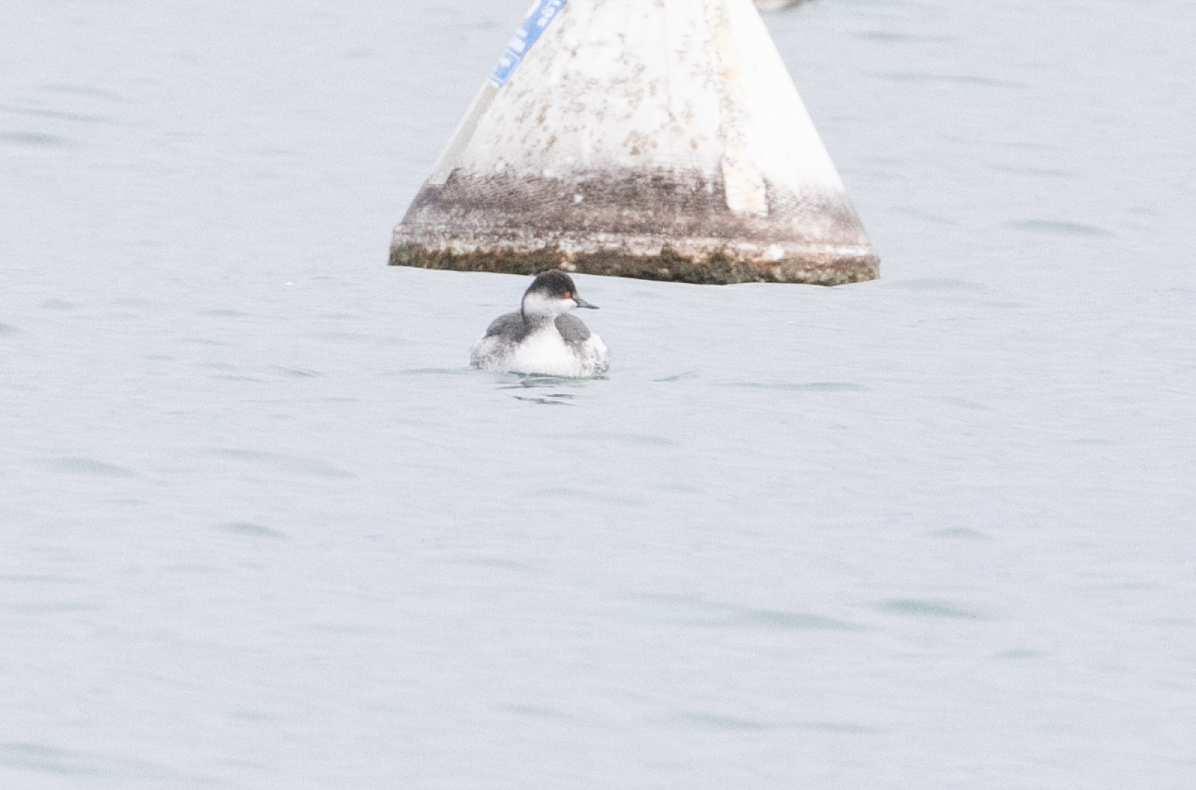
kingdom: Animalia
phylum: Chordata
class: Aves
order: Podicipediformes
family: Podicipedidae
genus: Podiceps
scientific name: Podiceps nigricollis
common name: Black-necked grebe
